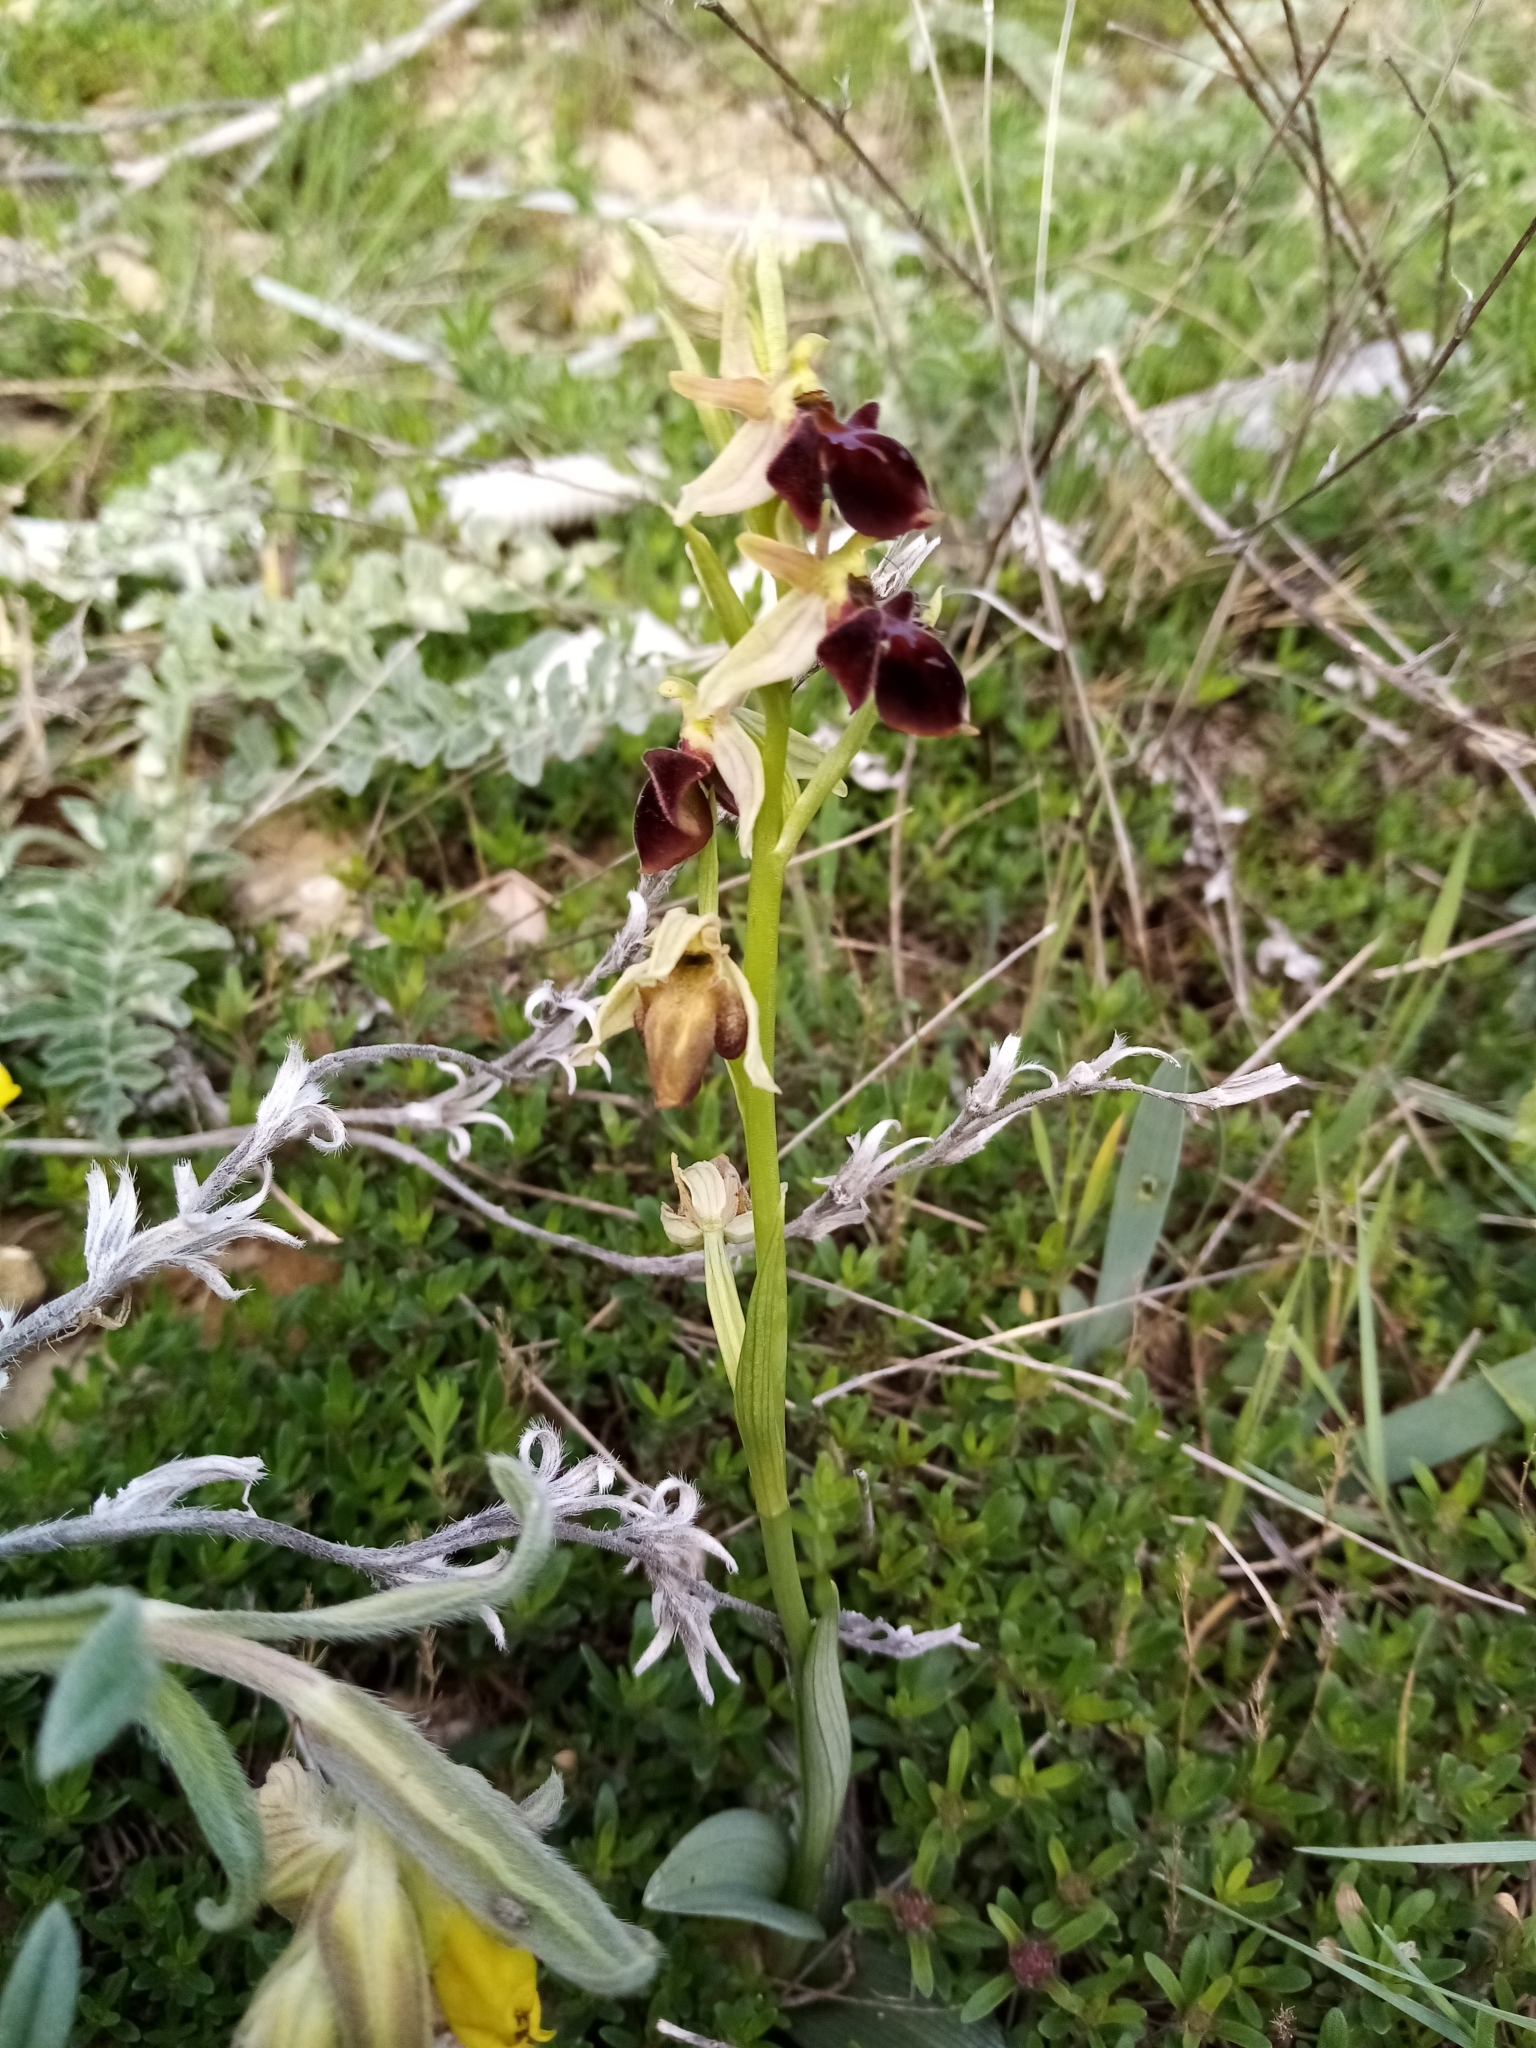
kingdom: Plantae
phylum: Tracheophyta
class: Liliopsida
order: Asparagales
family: Orchidaceae
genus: Ophrys
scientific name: Ophrys sphegodes
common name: Early spider-orchid
